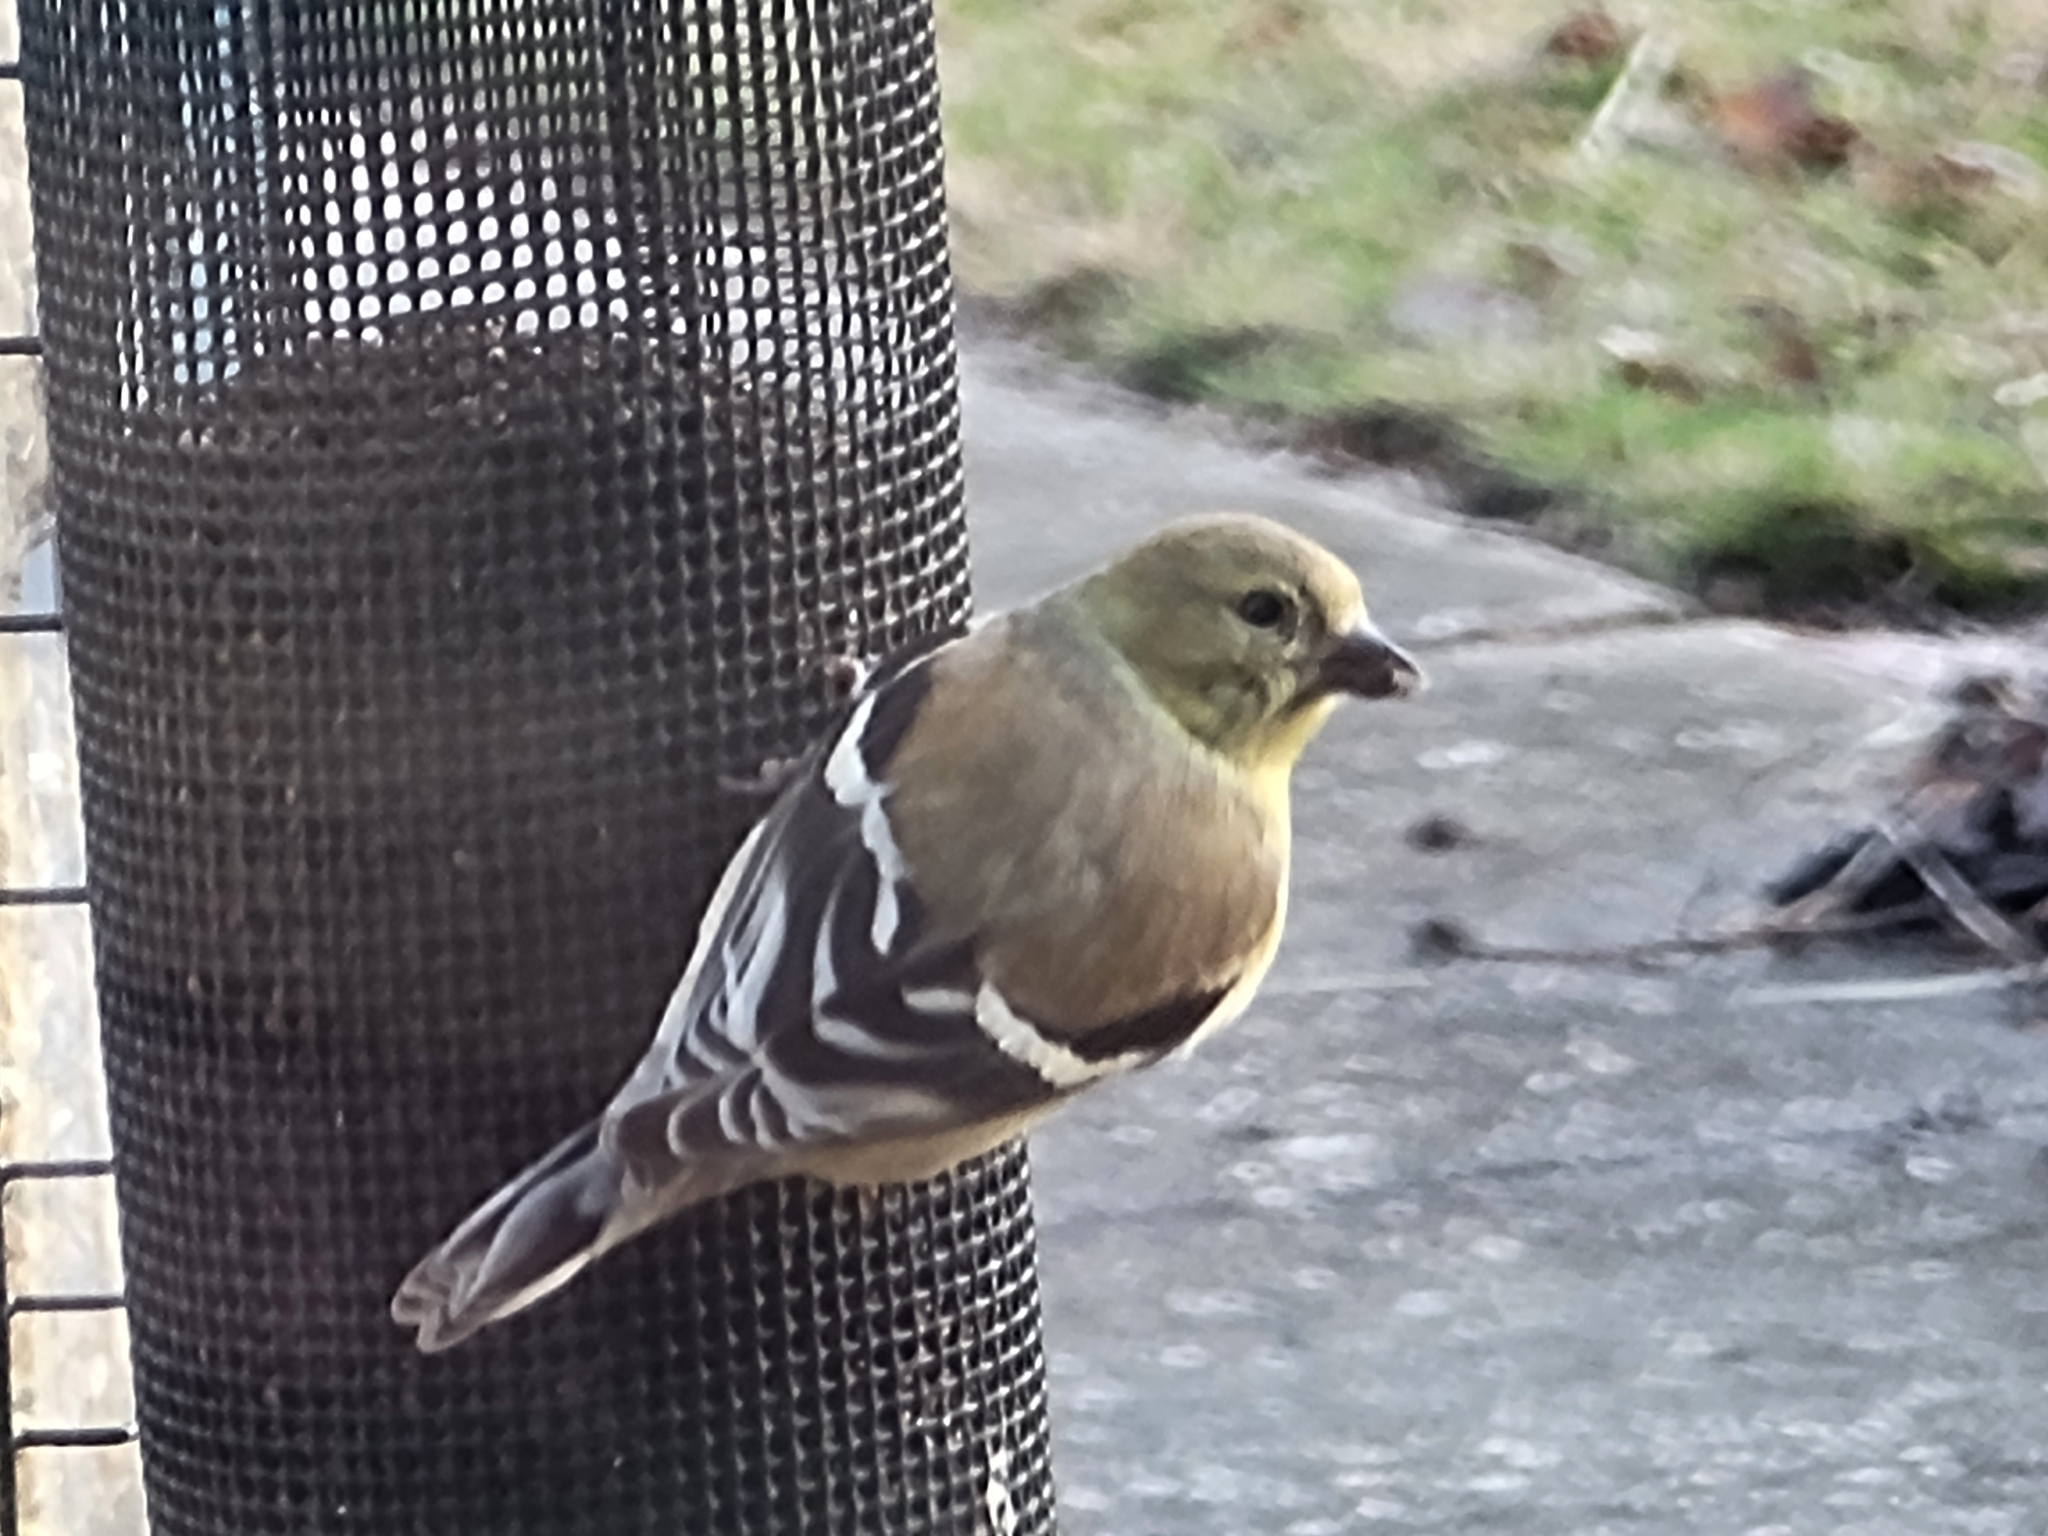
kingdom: Animalia
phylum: Chordata
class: Aves
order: Passeriformes
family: Fringillidae
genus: Spinus
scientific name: Spinus tristis
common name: American goldfinch
